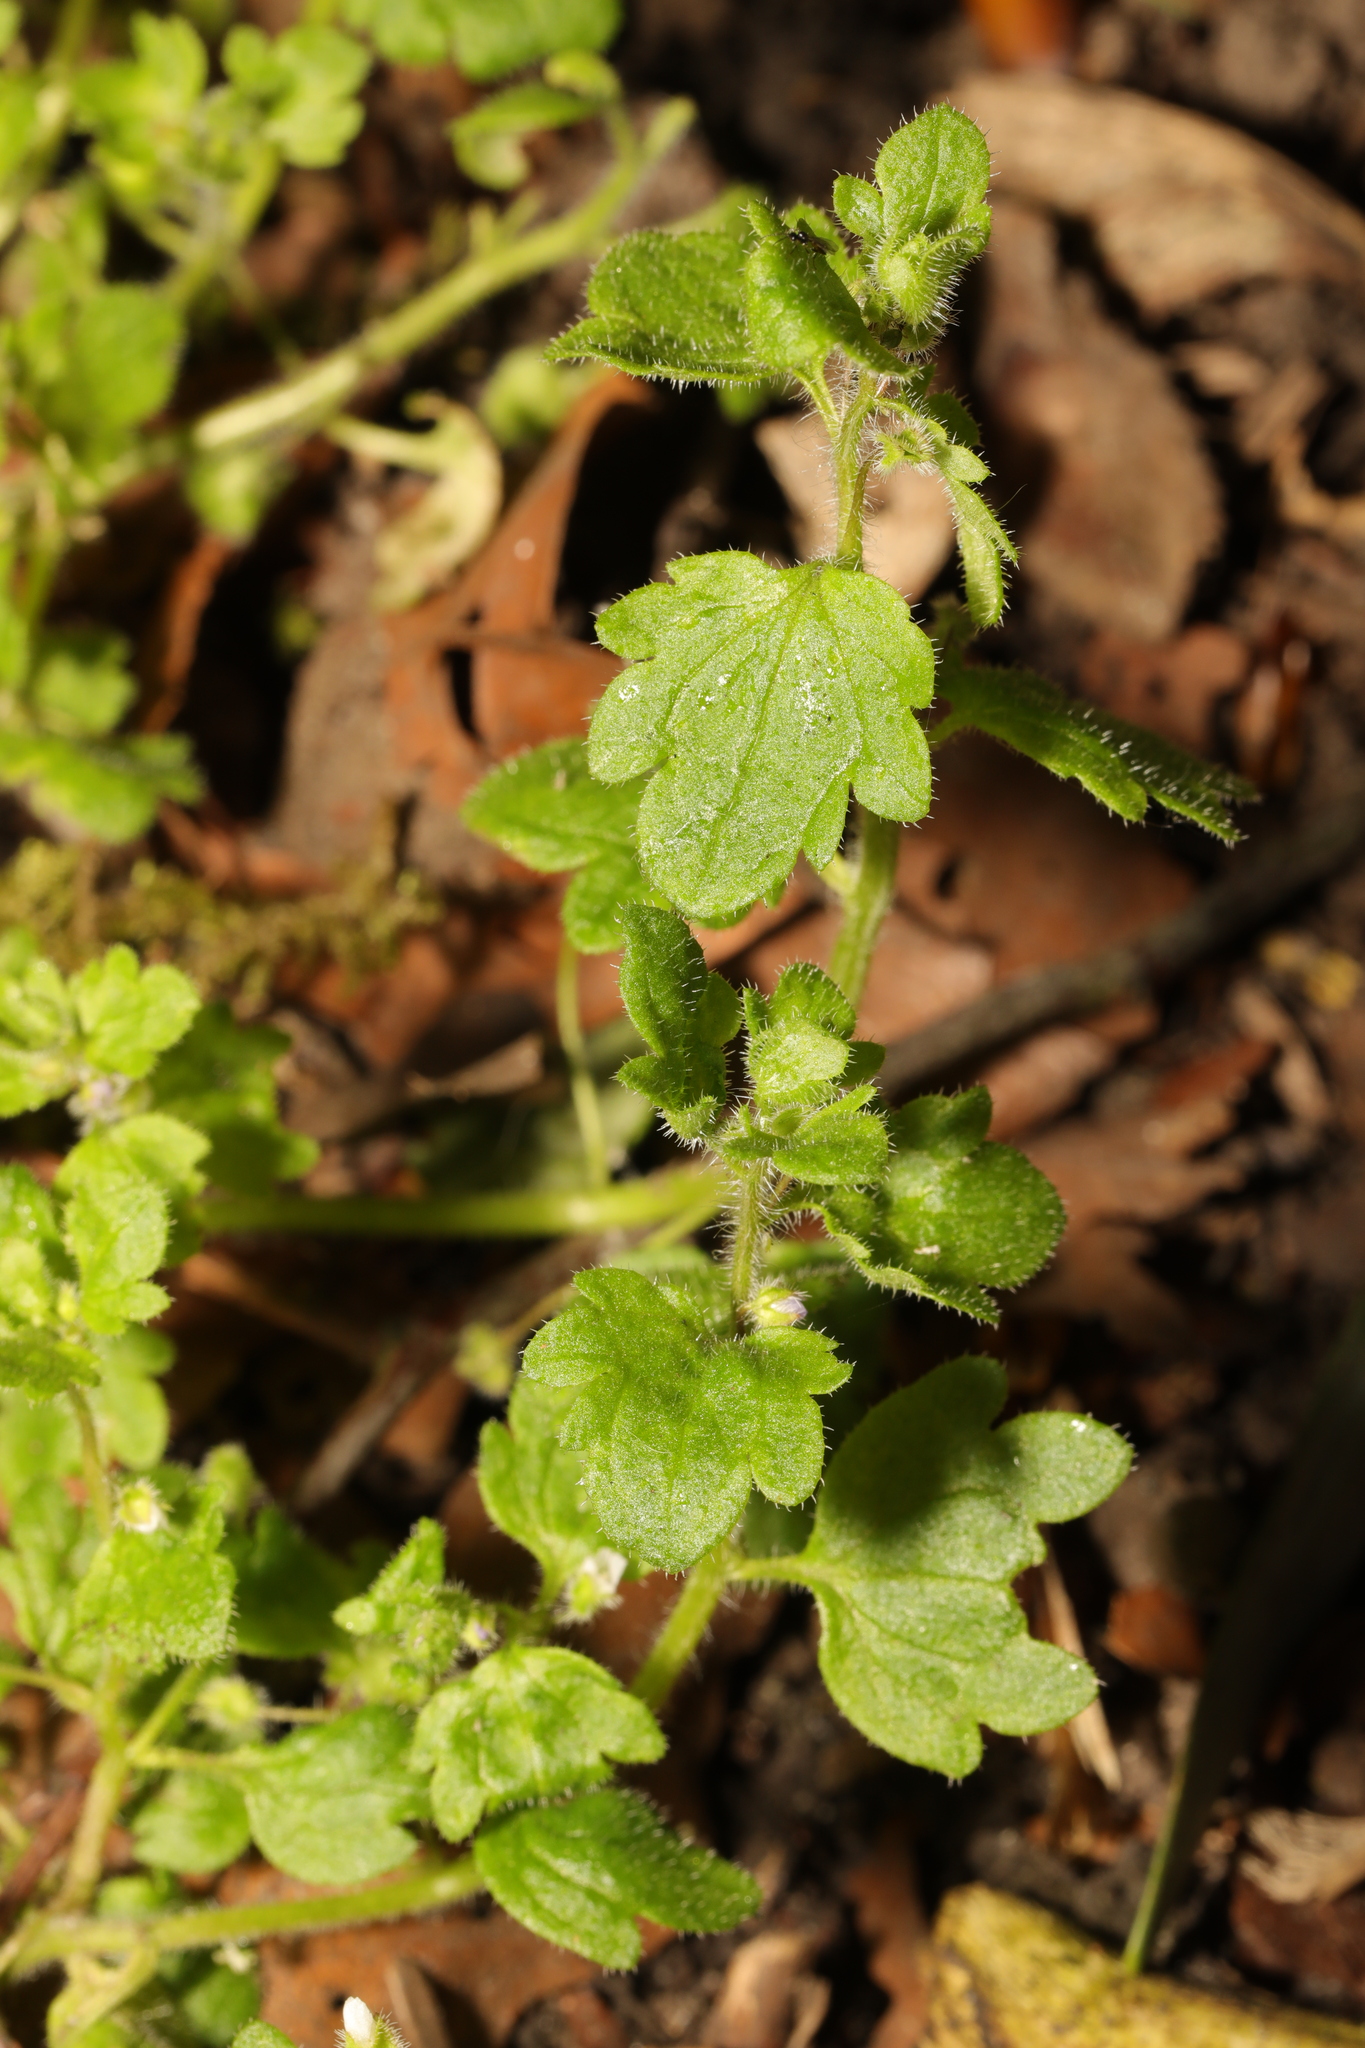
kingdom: Plantae
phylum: Tracheophyta
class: Magnoliopsida
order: Lamiales
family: Plantaginaceae
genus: Veronica
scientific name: Veronica sublobata
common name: False ivy-leaved speedwell
